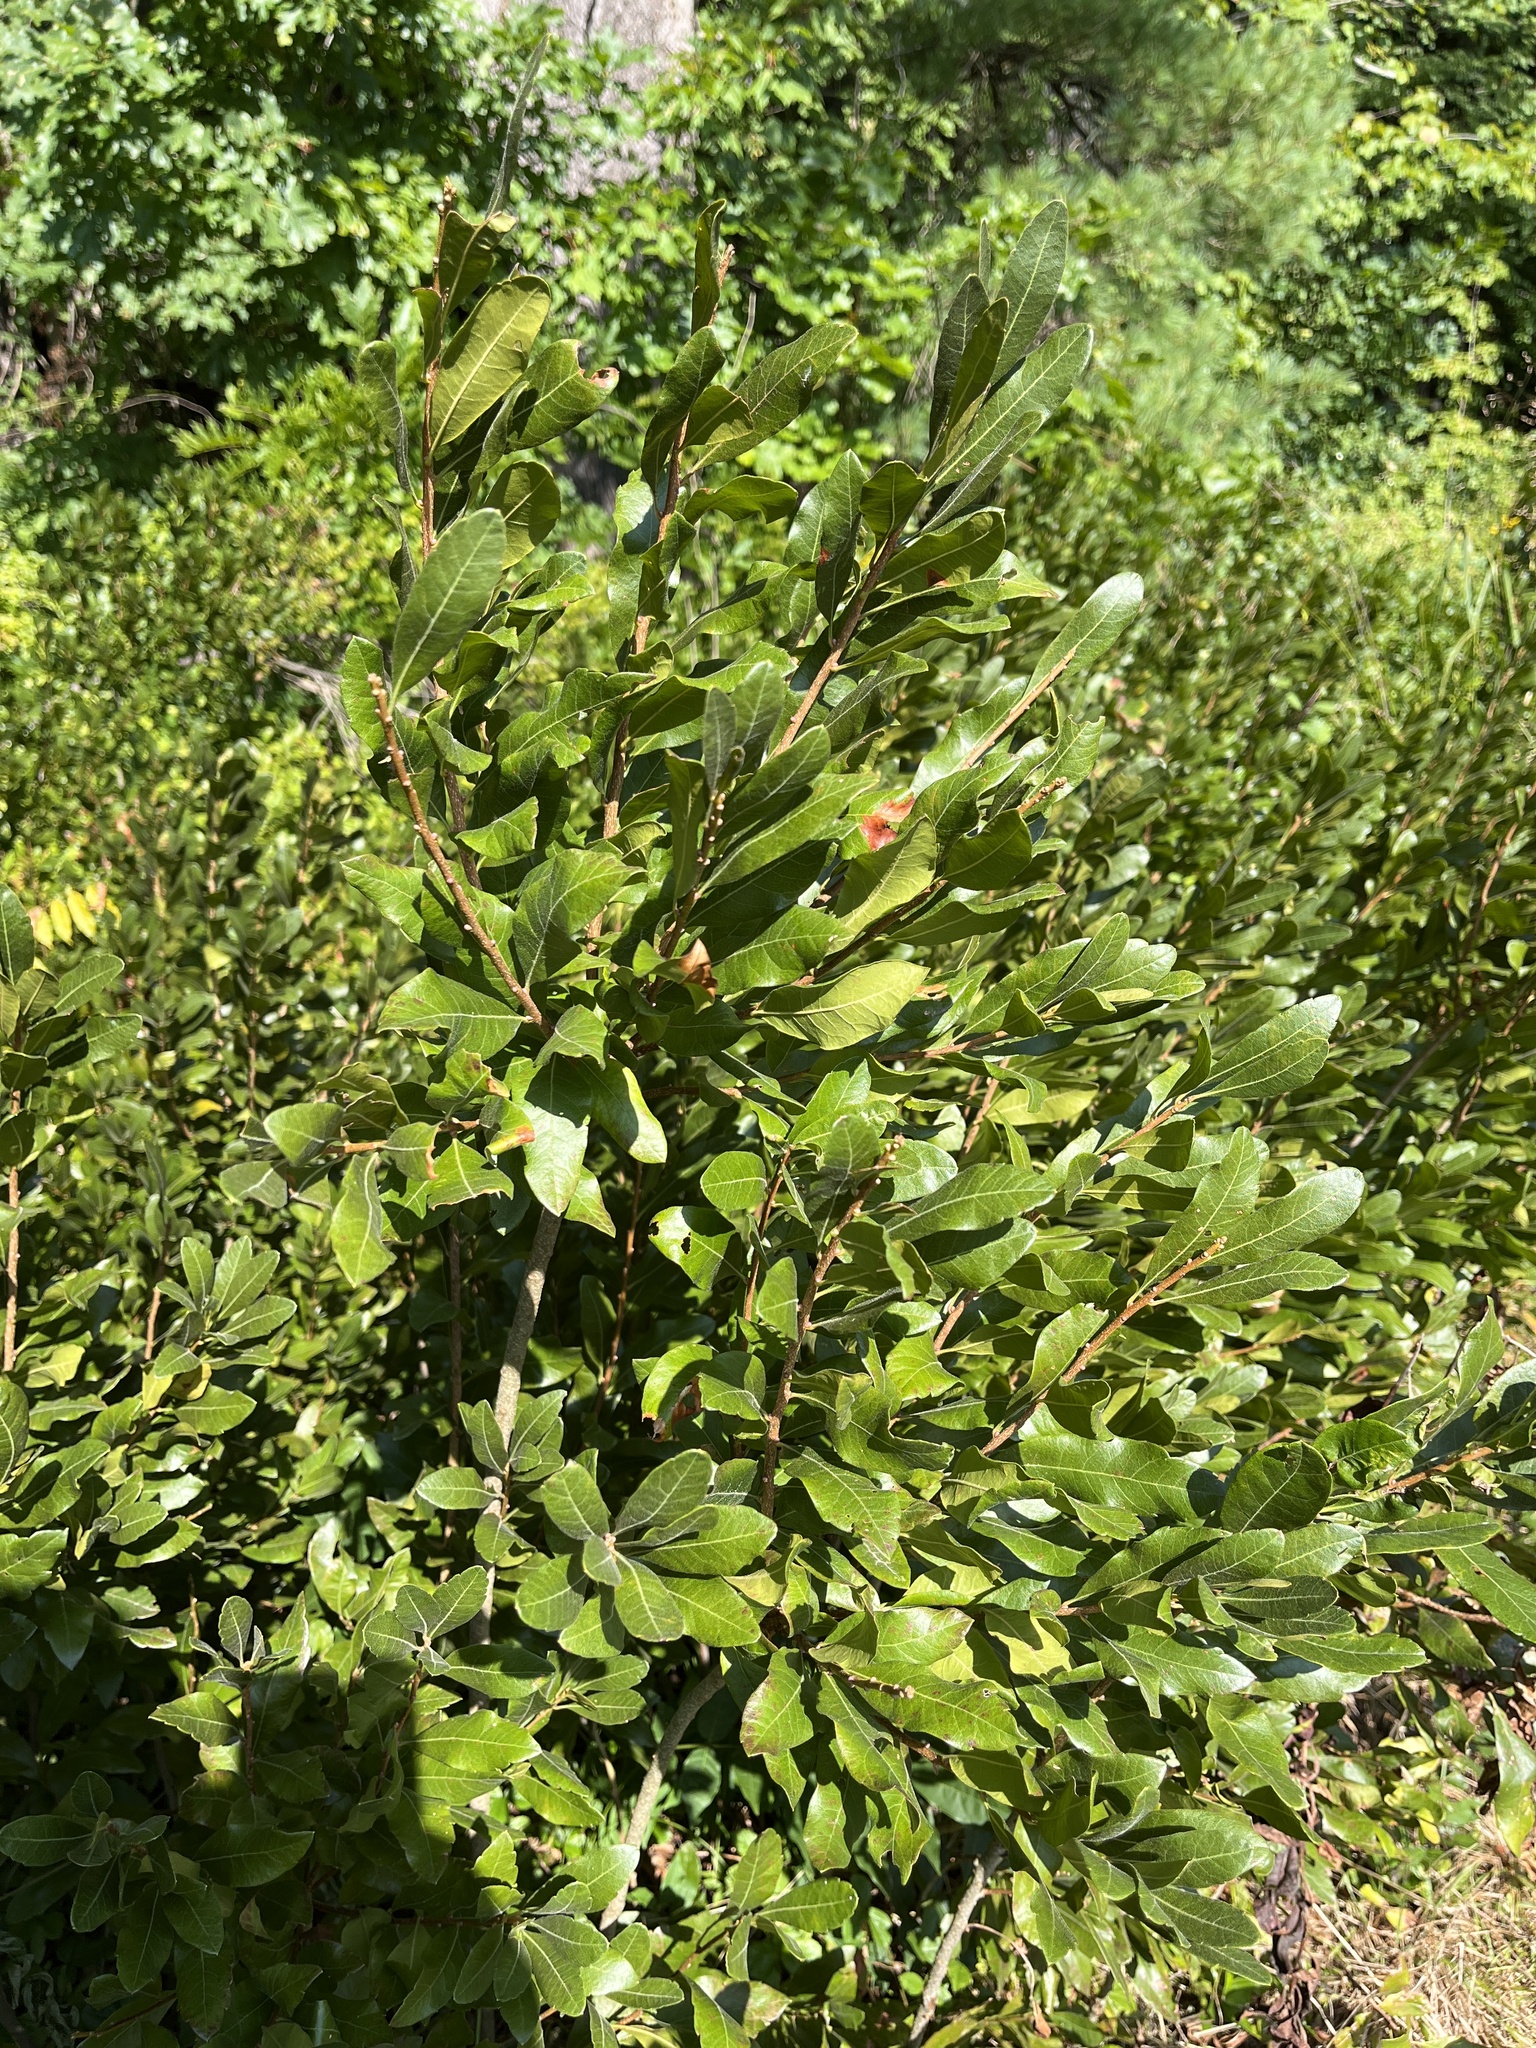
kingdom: Plantae
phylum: Tracheophyta
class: Magnoliopsida
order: Fagales
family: Myricaceae
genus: Morella
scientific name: Morella pensylvanica
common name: Northern bayberry
